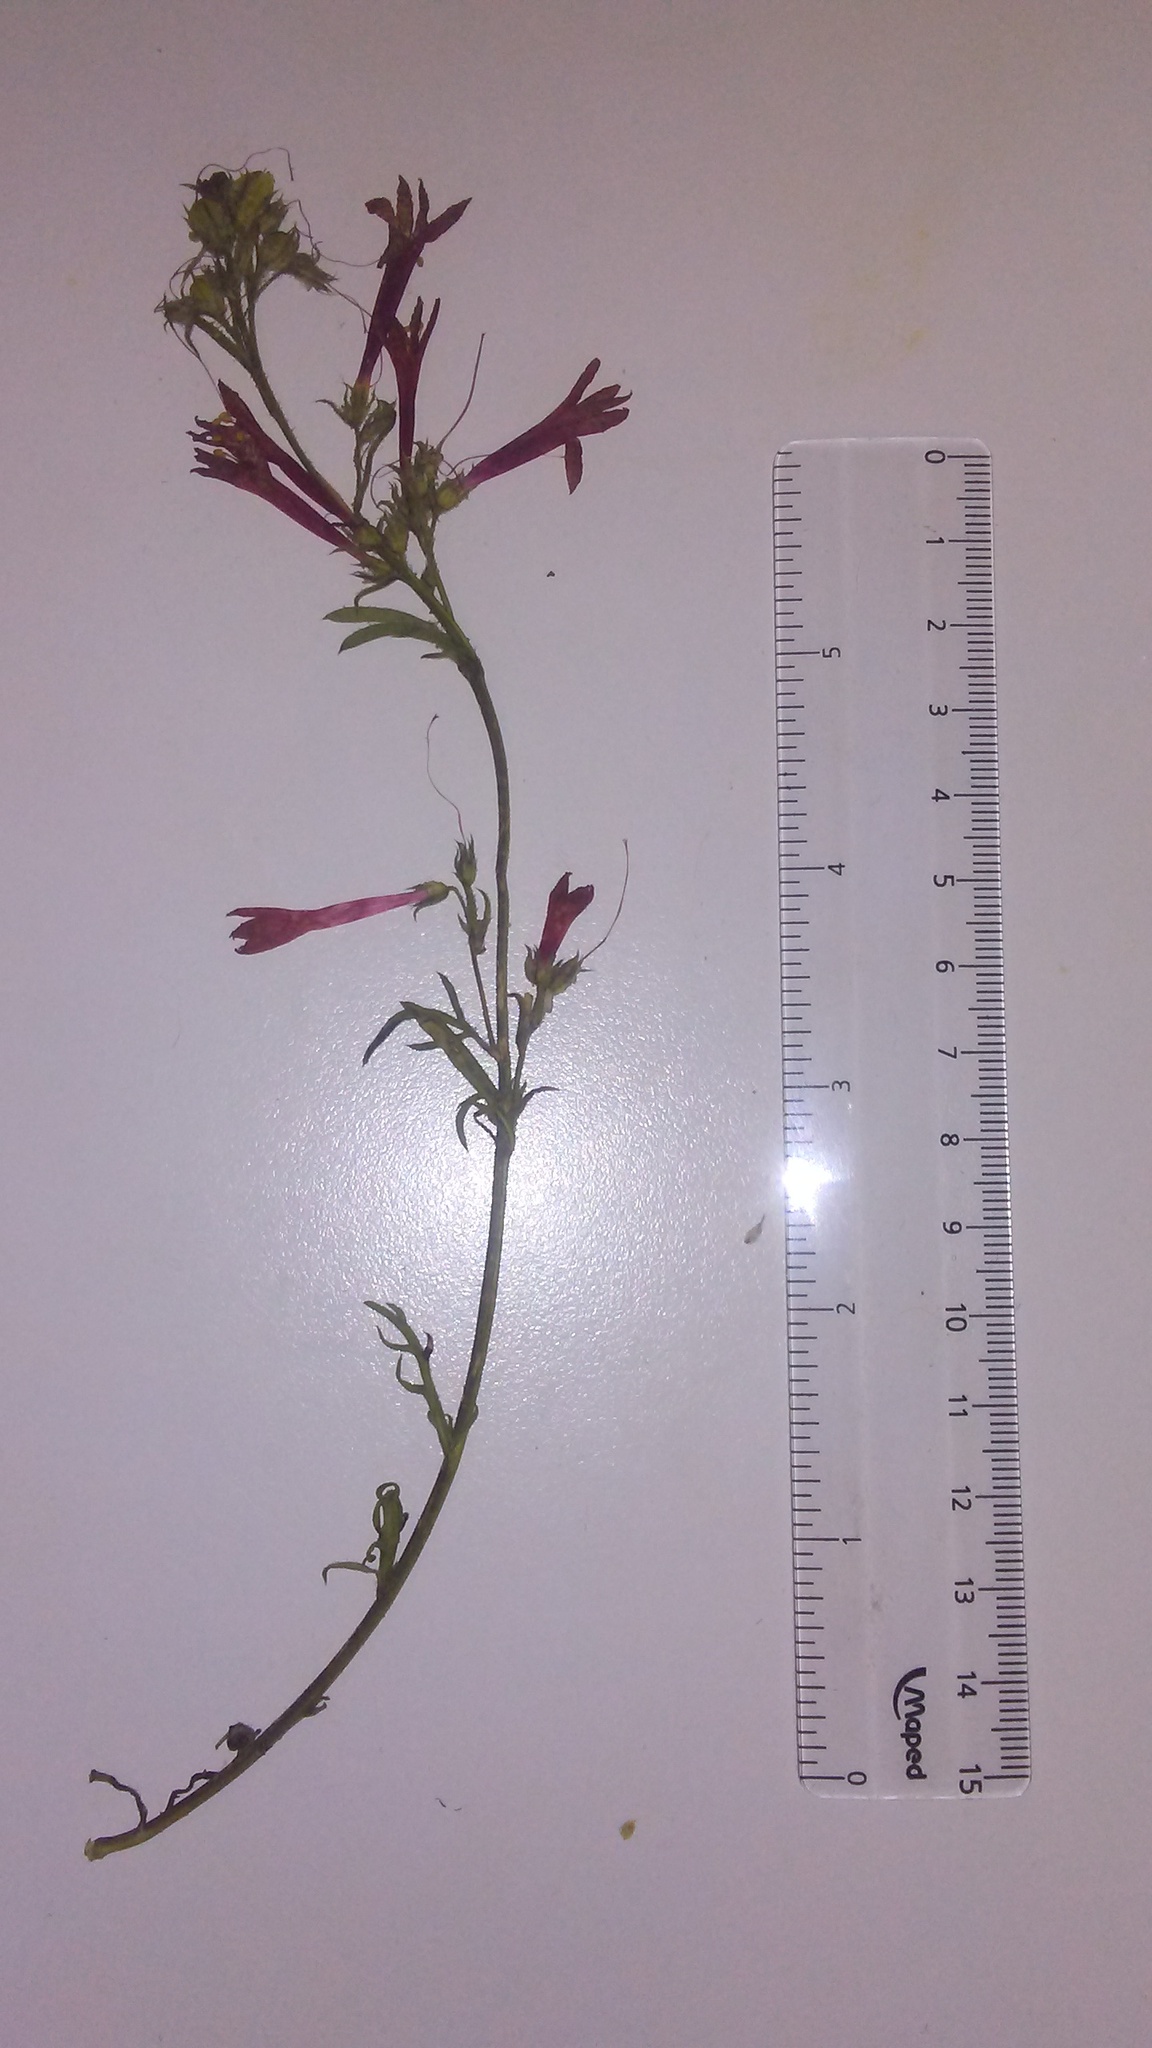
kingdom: Plantae
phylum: Tracheophyta
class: Magnoliopsida
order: Ericales
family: Polemoniaceae
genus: Ipomopsis
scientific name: Ipomopsis aggregata
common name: Scarlet gilia
